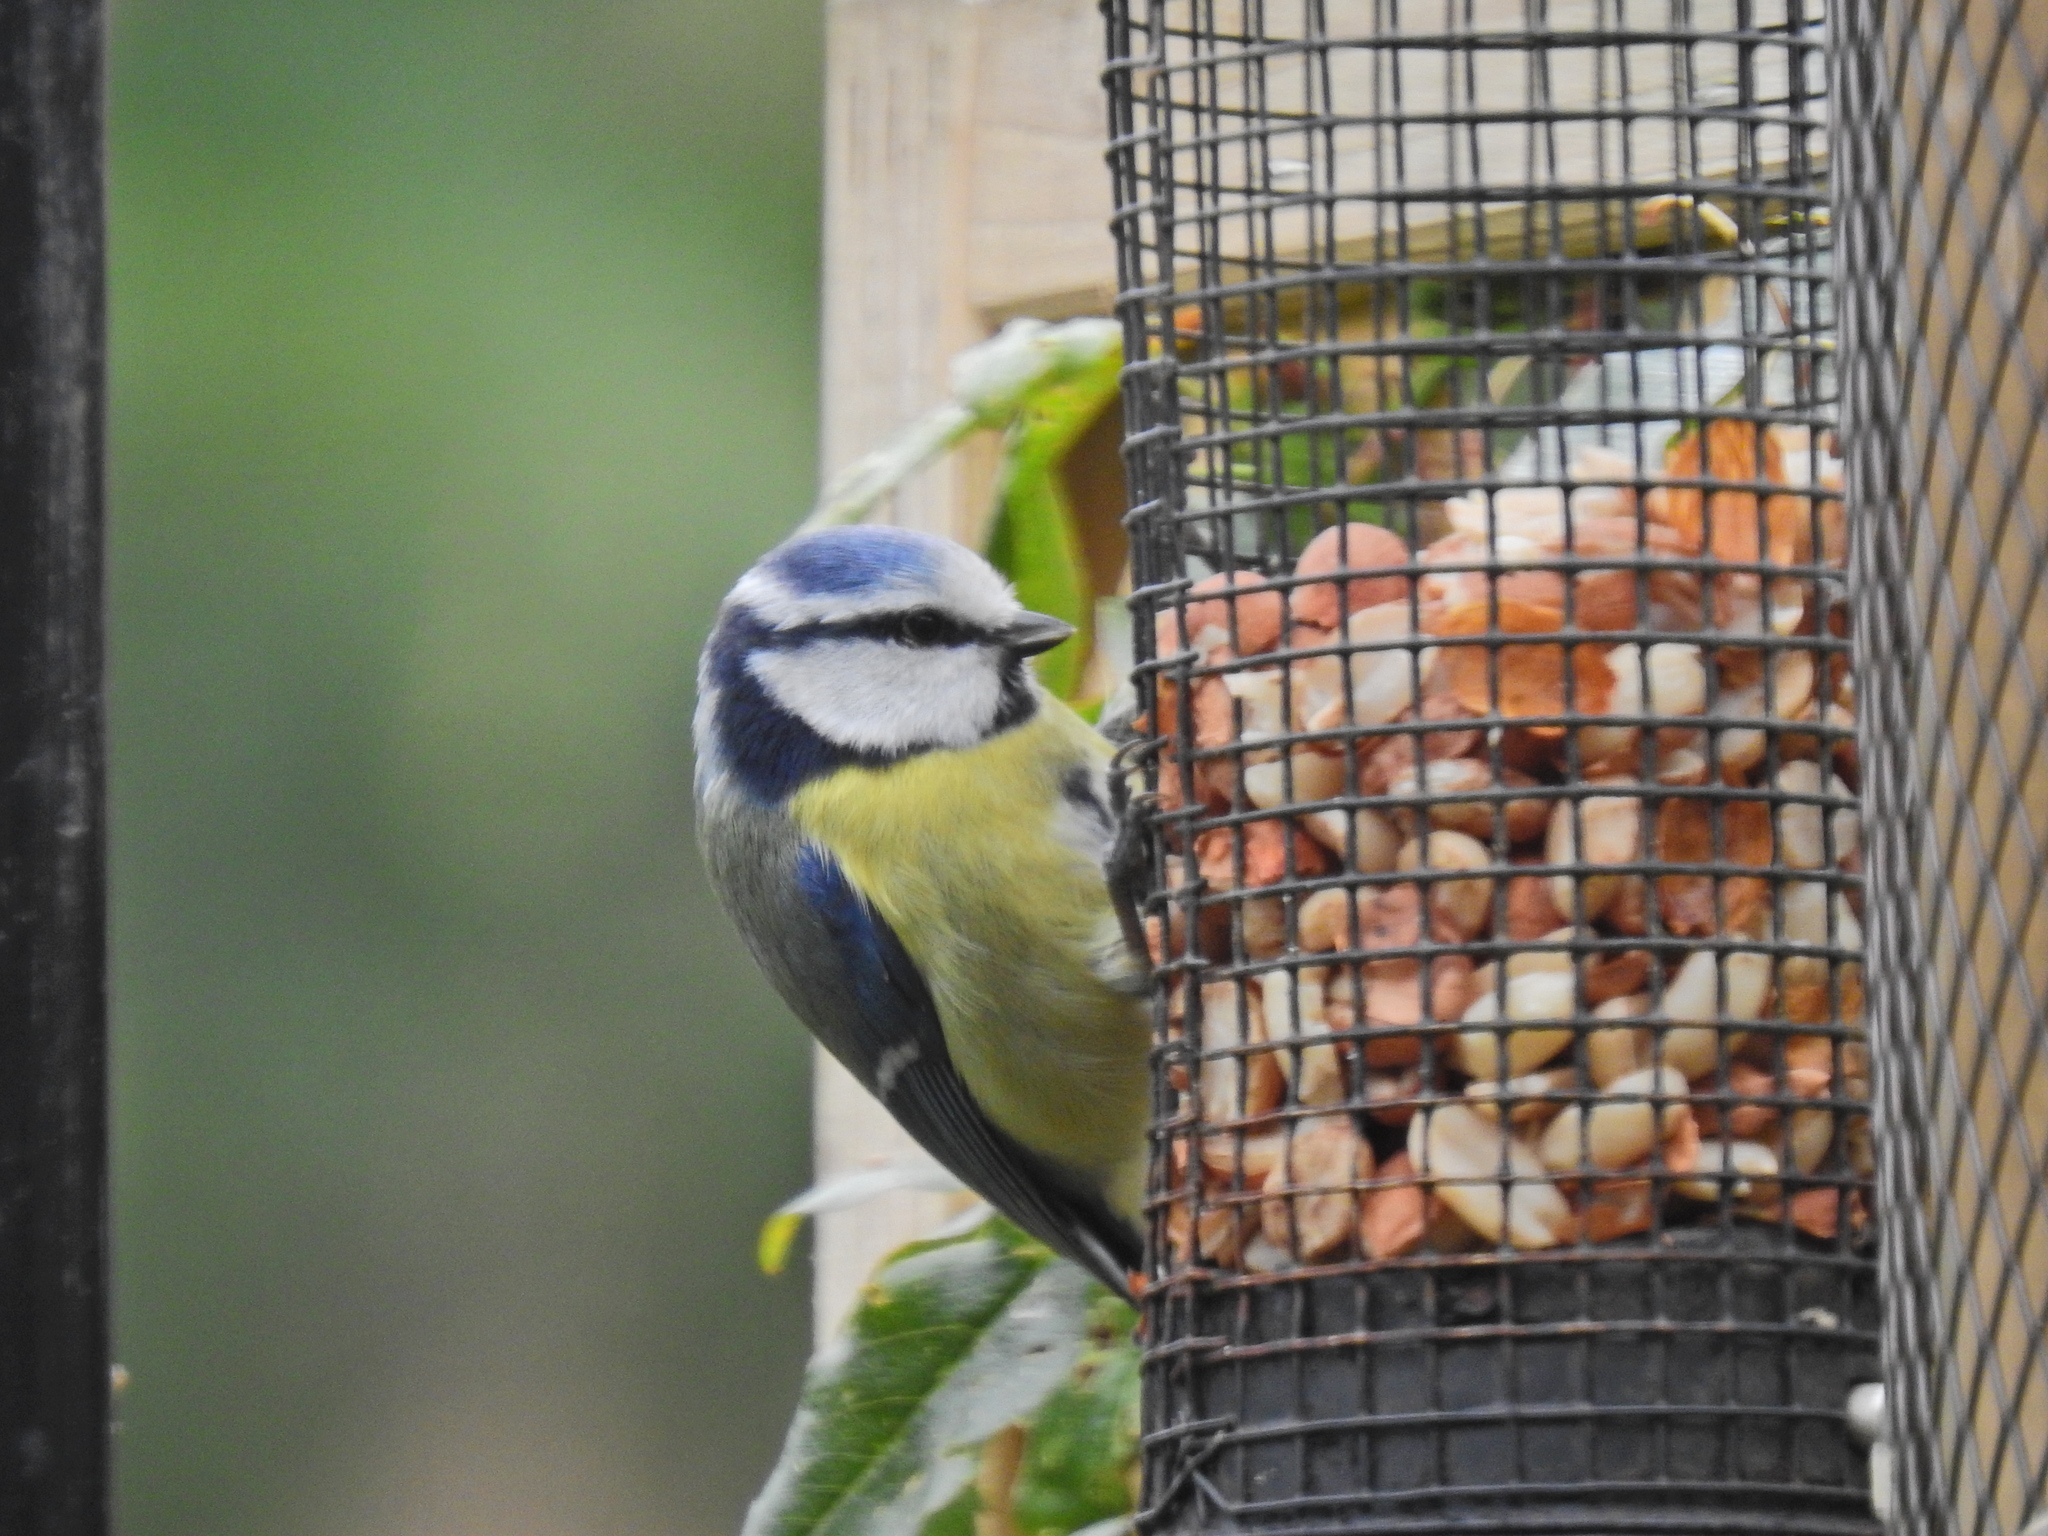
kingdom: Animalia
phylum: Chordata
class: Aves
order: Passeriformes
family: Paridae
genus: Cyanistes
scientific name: Cyanistes caeruleus
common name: Eurasian blue tit
